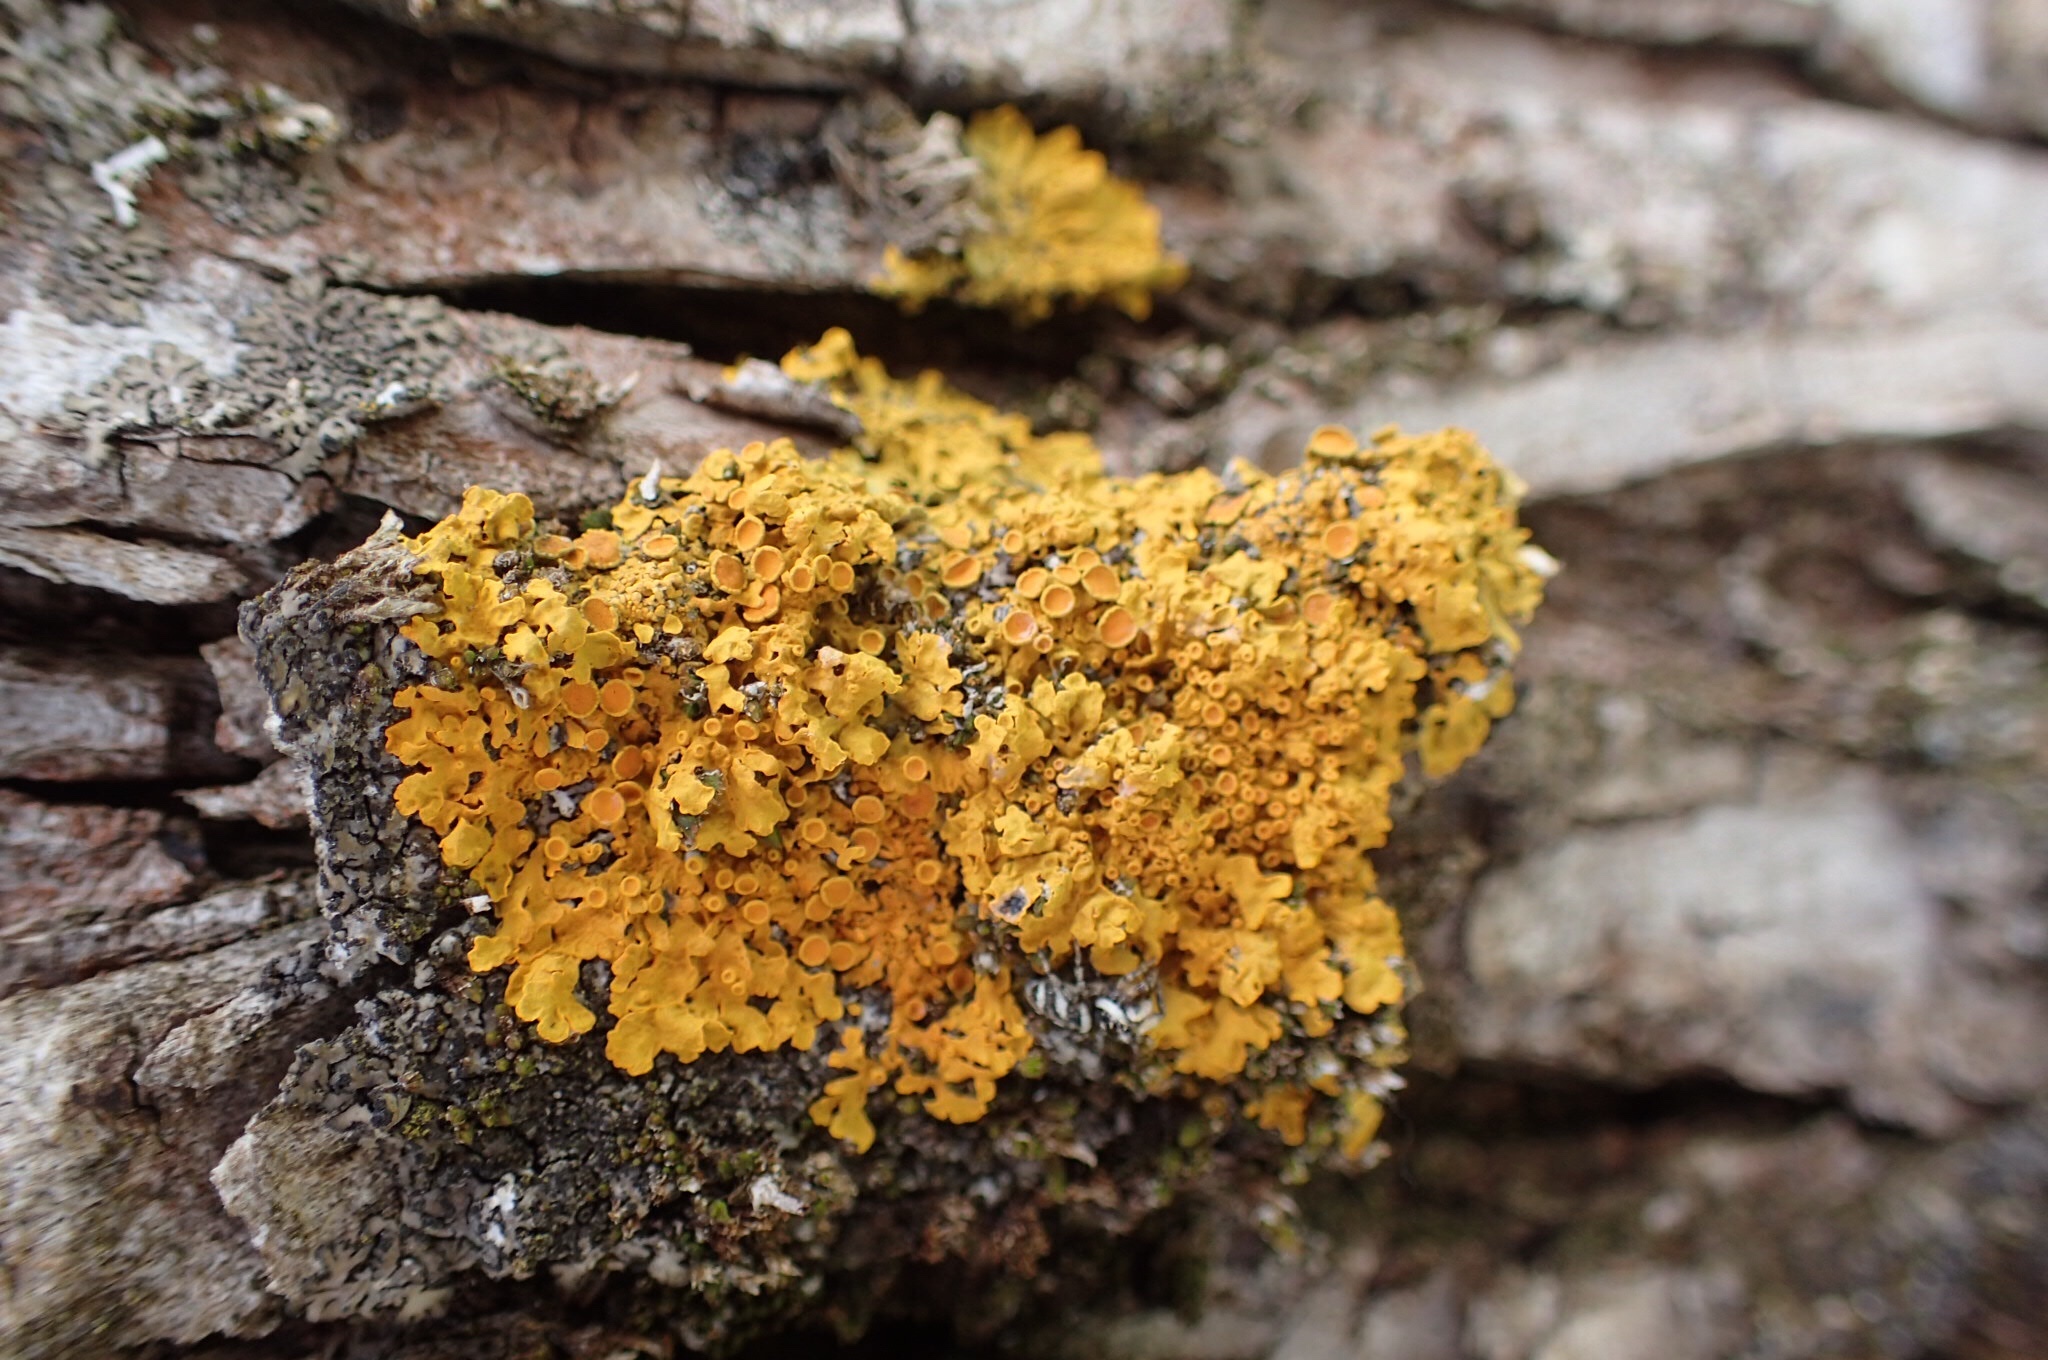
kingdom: Fungi
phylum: Ascomycota
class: Lecanoromycetes
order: Teloschistales
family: Teloschistaceae
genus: Xanthoria
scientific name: Xanthoria parietina
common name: Common orange lichen
